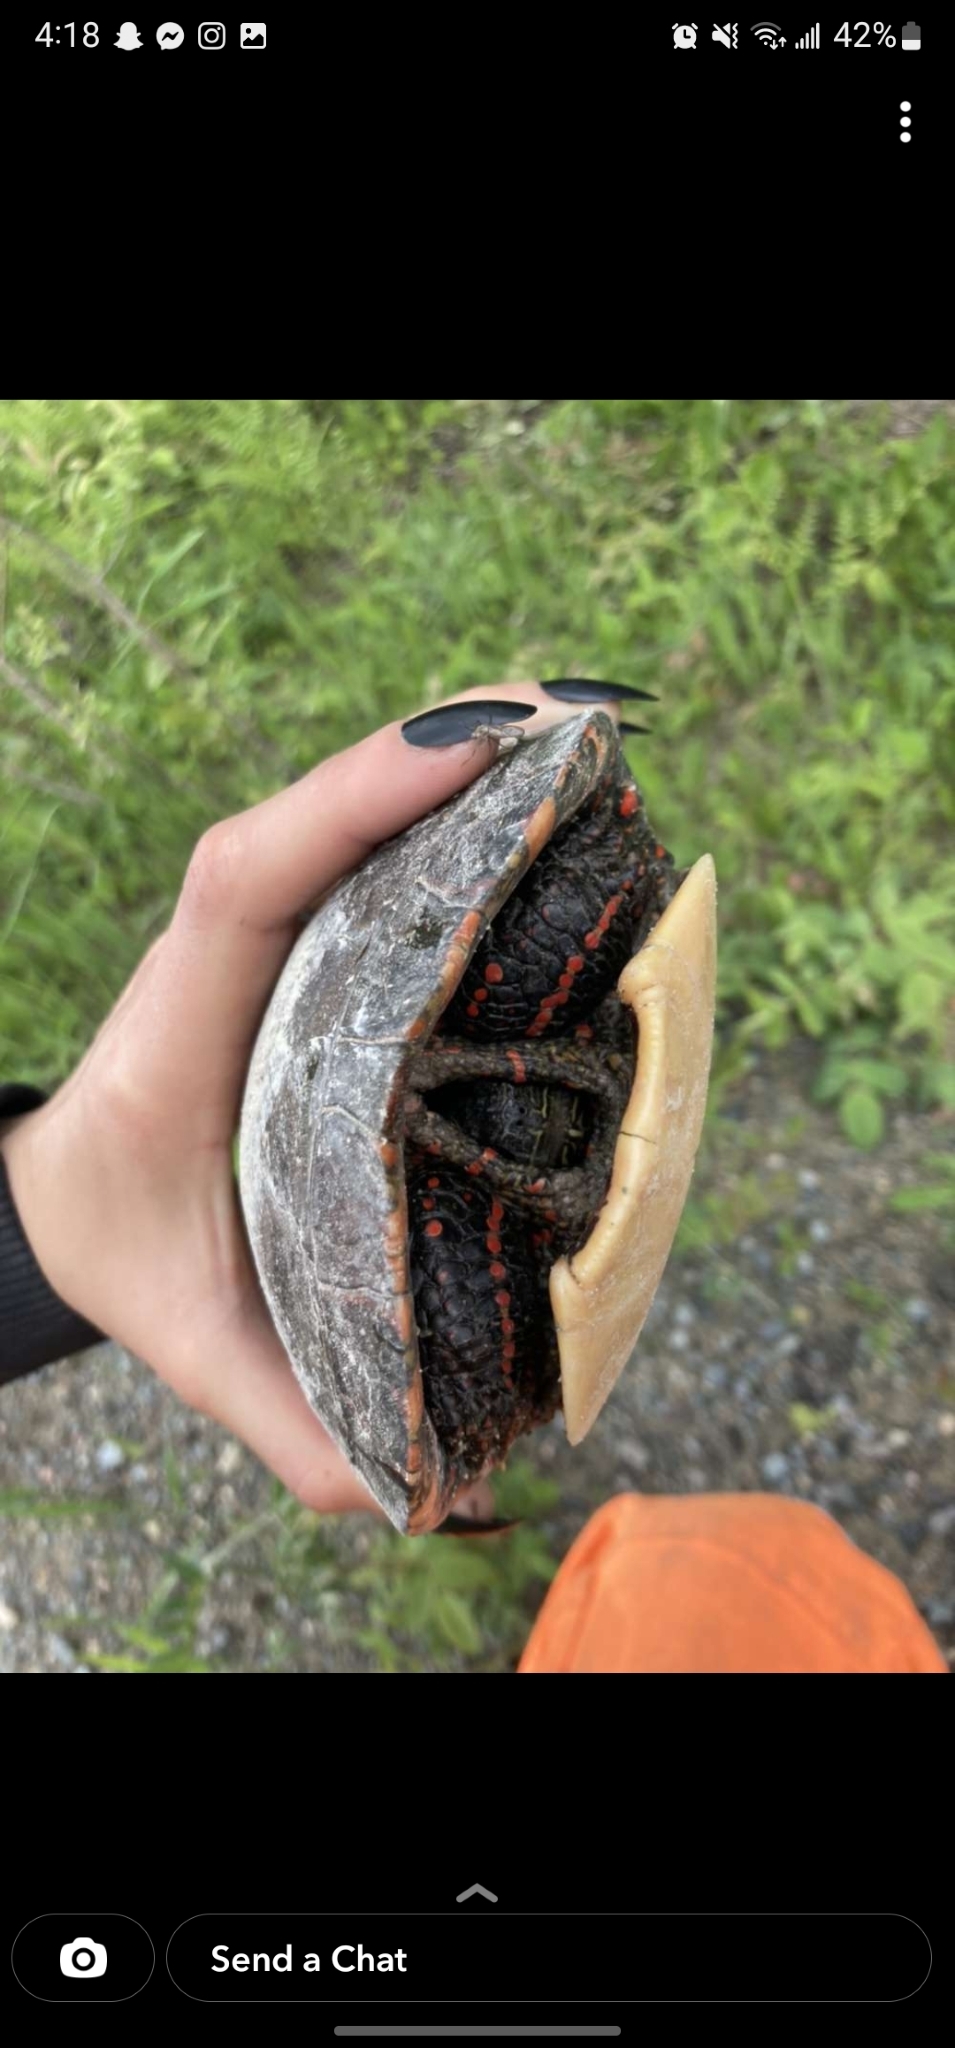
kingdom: Animalia
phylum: Chordata
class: Testudines
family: Emydidae
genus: Chrysemys
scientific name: Chrysemys picta
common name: Painted turtle
